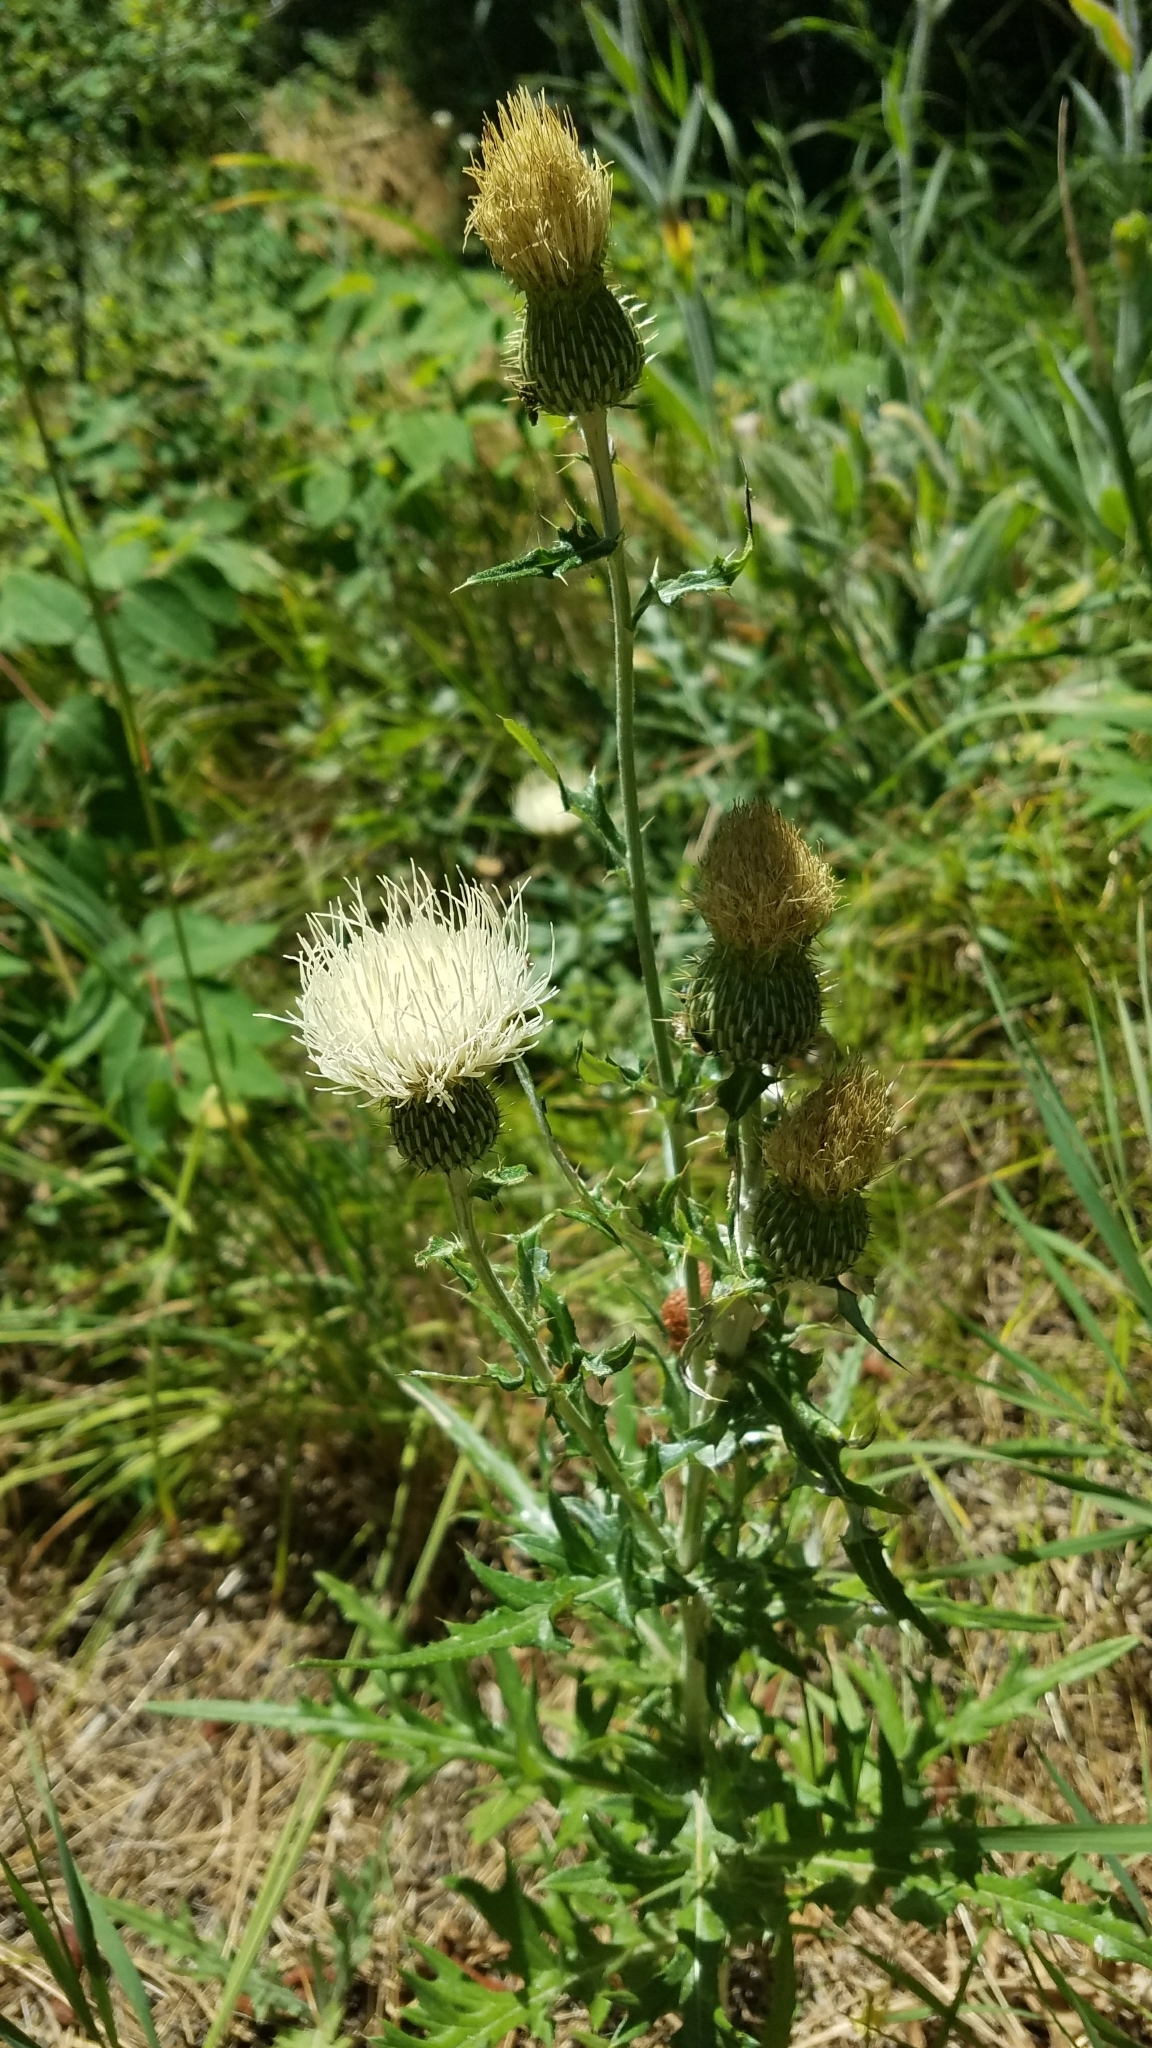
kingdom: Plantae
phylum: Tracheophyta
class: Magnoliopsida
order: Asterales
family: Asteraceae
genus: Cirsium
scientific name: Cirsium brevifolium
